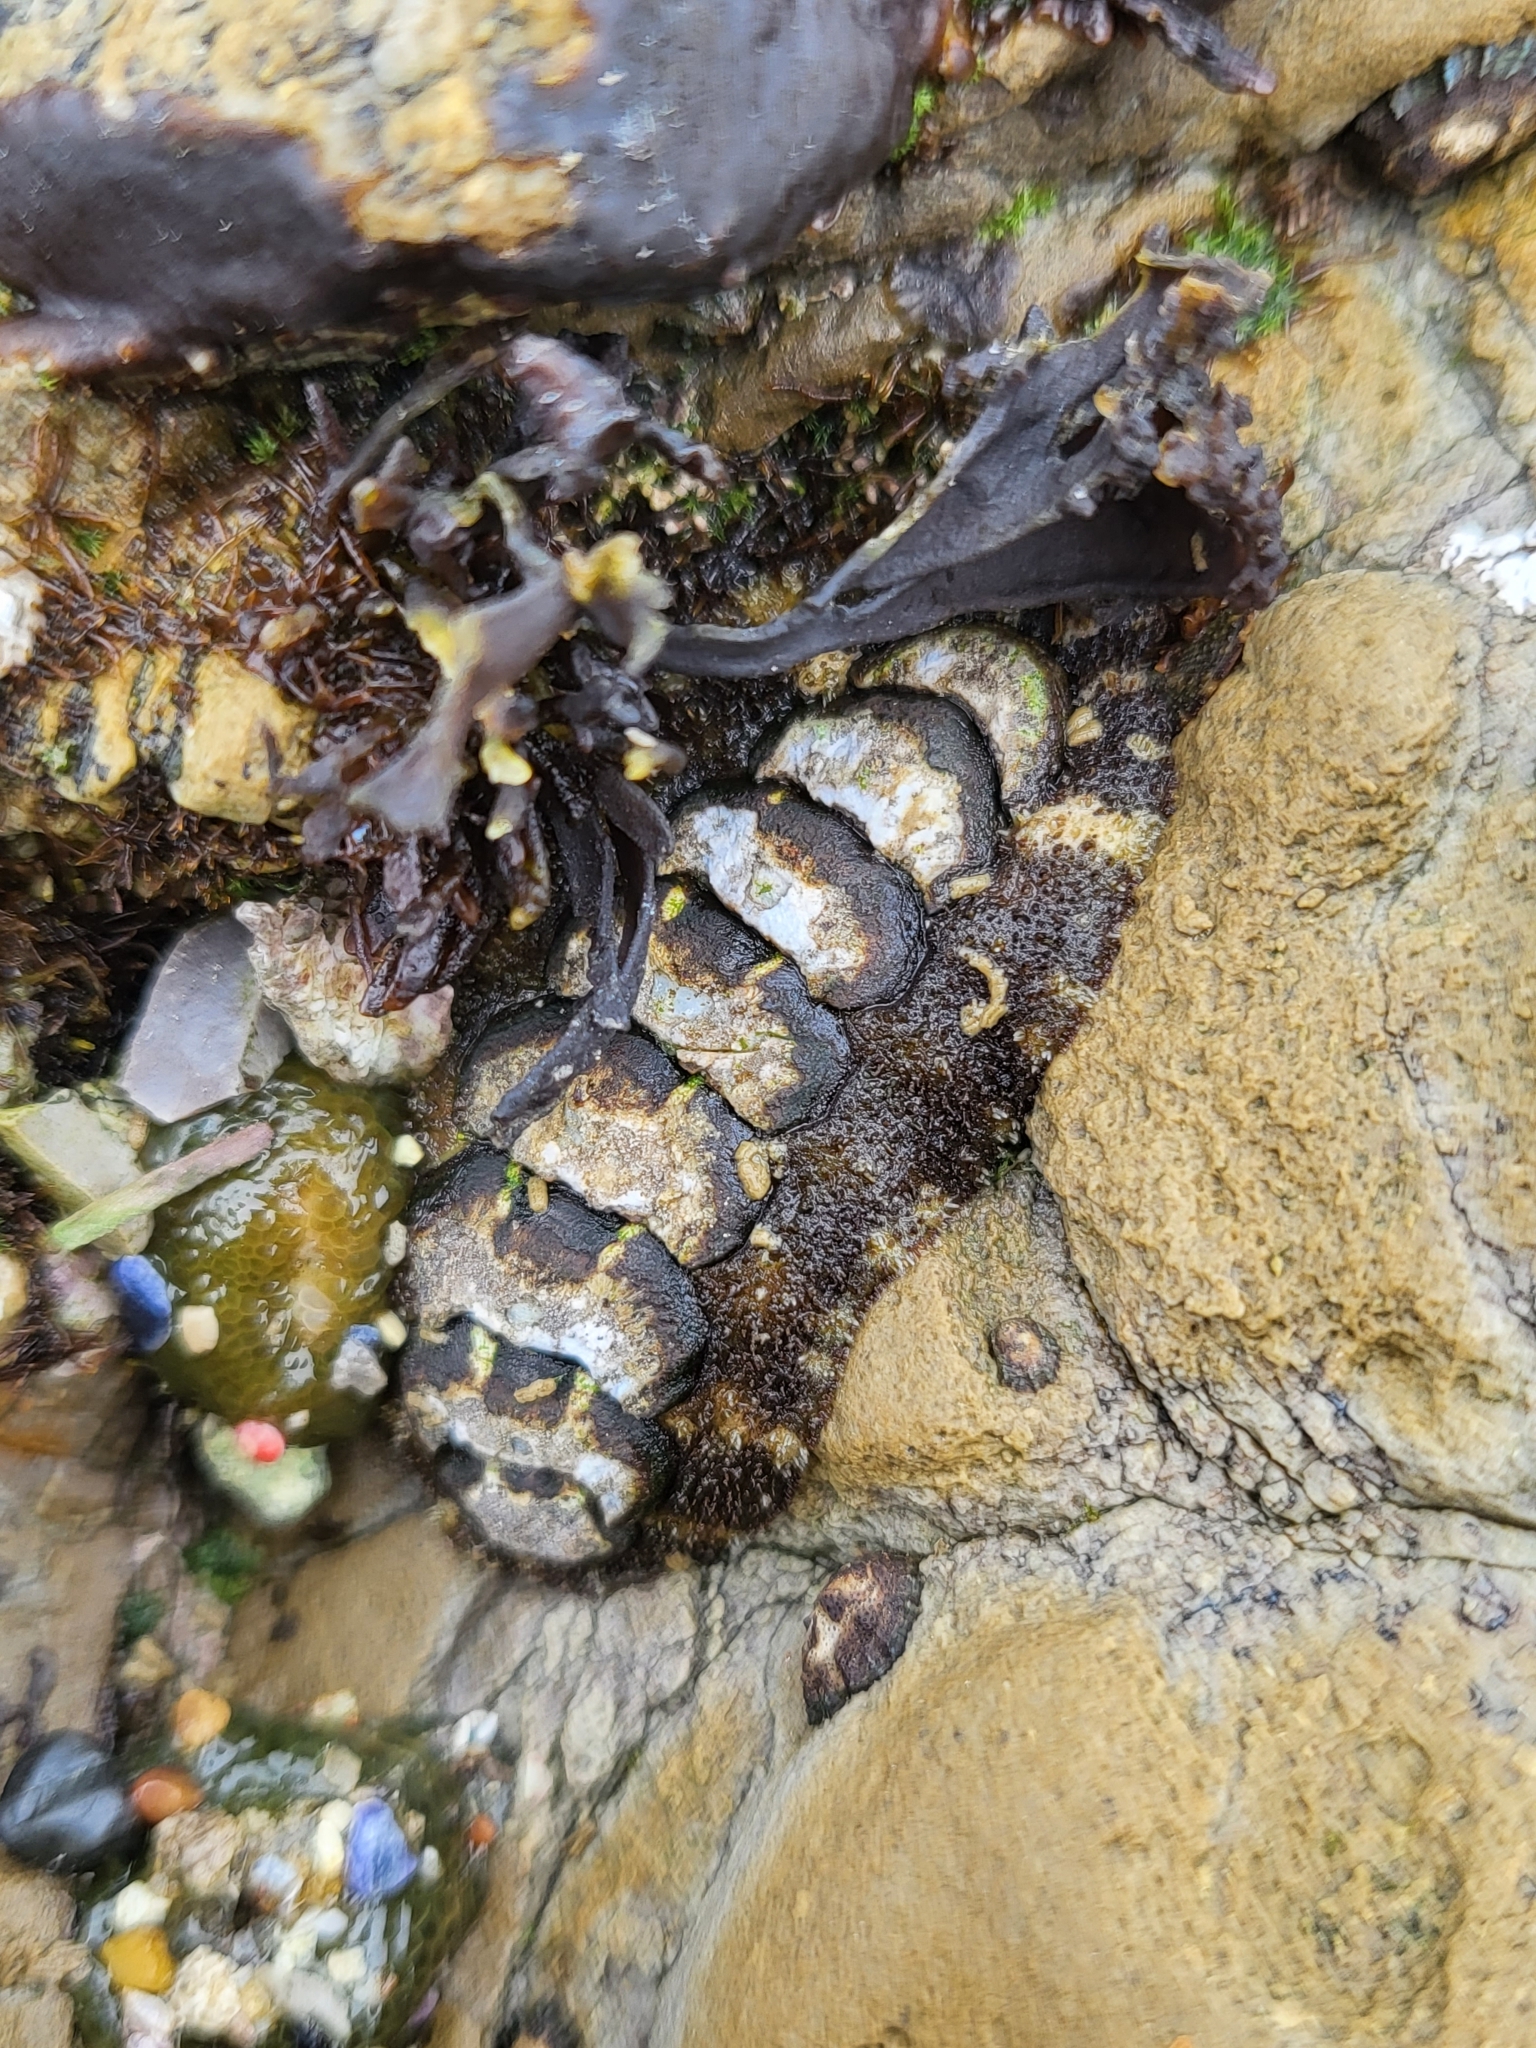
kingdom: Animalia
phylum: Mollusca
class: Polyplacophora
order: Chitonida
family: Tonicellidae
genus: Nuttallina
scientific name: Nuttallina californica
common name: California nuttall chiton
